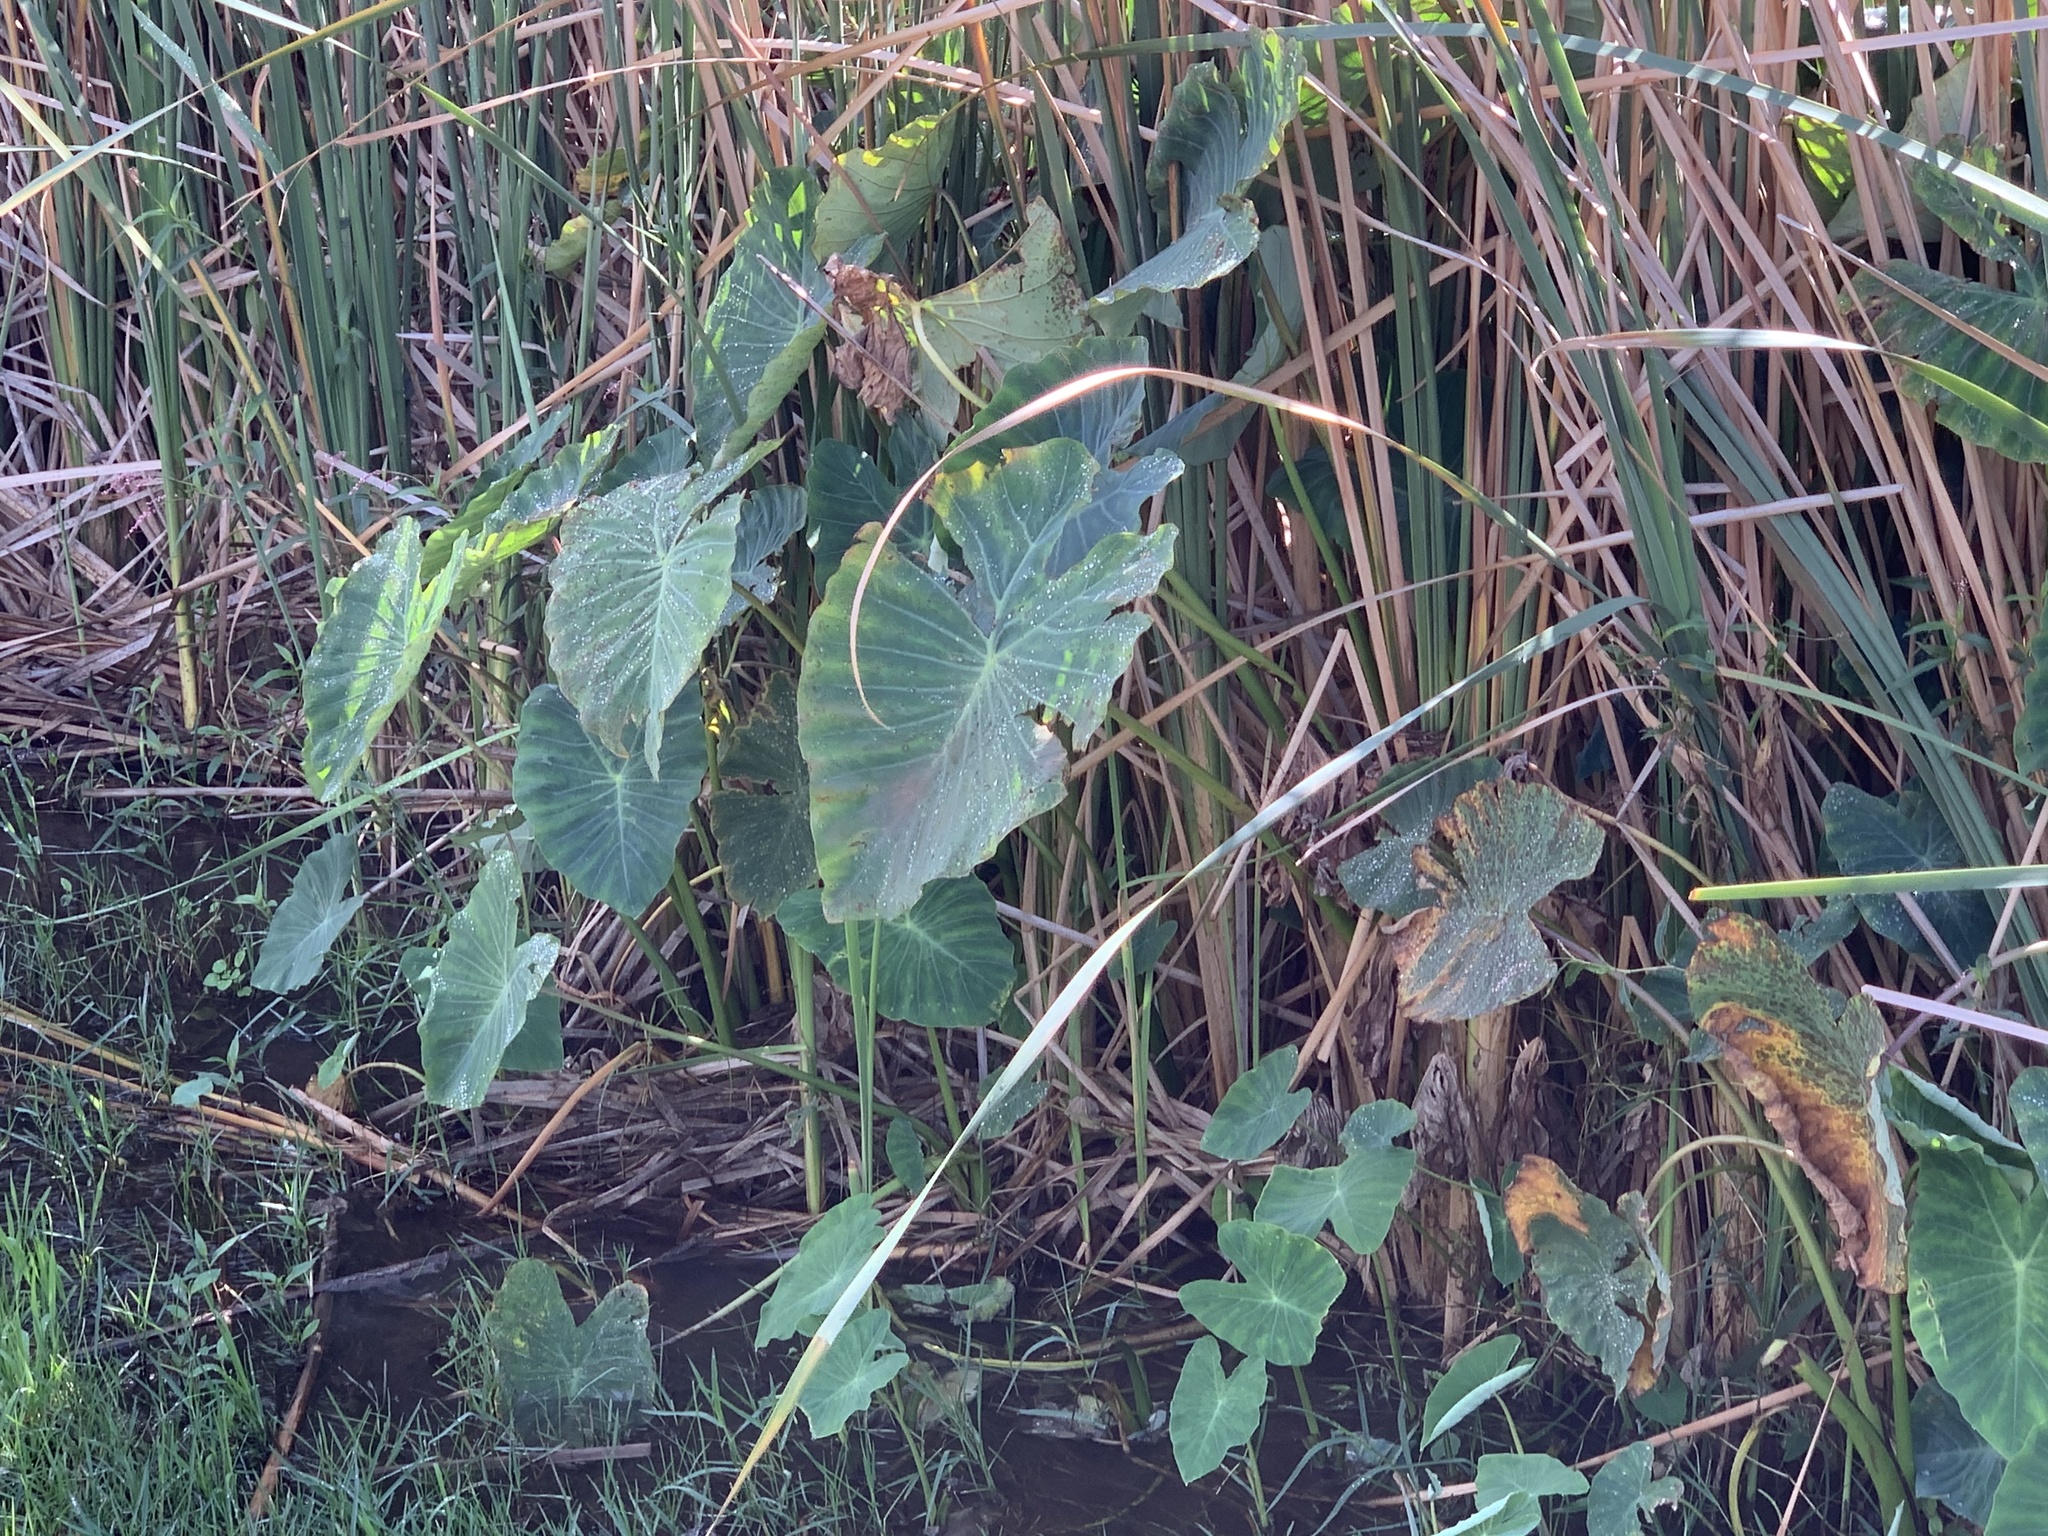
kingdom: Plantae
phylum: Tracheophyta
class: Liliopsida
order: Alismatales
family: Araceae
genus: Colocasia
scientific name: Colocasia esculenta
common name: Taro
